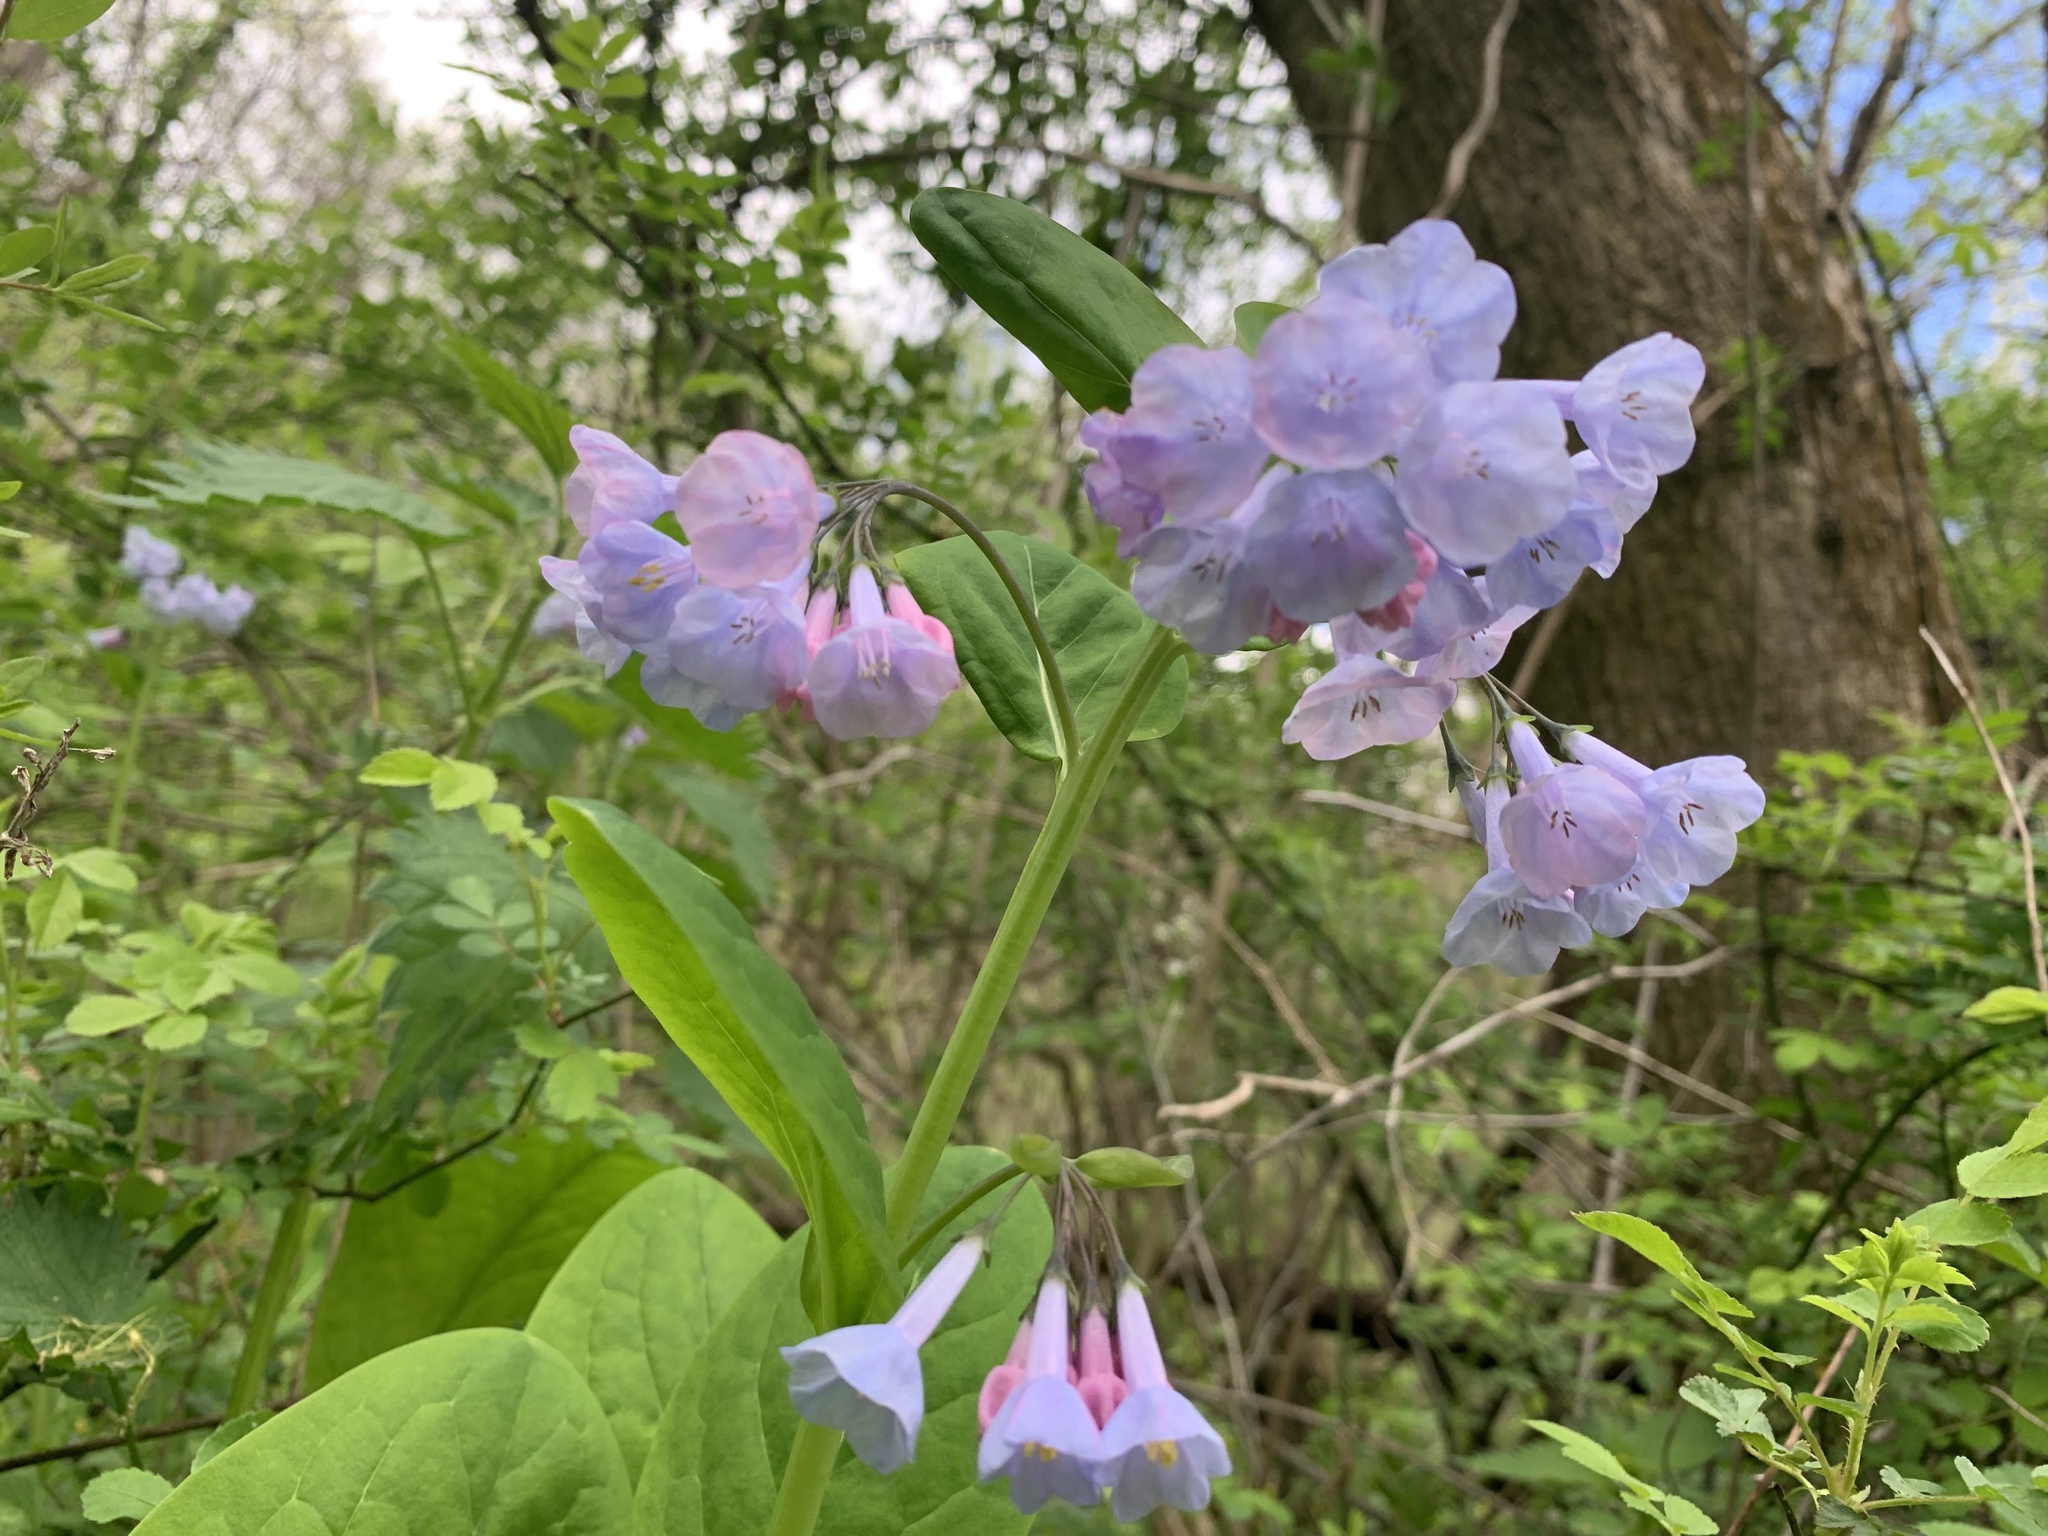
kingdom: Plantae
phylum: Tracheophyta
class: Magnoliopsida
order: Boraginales
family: Boraginaceae
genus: Mertensia
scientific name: Mertensia virginica
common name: Virginia bluebells
